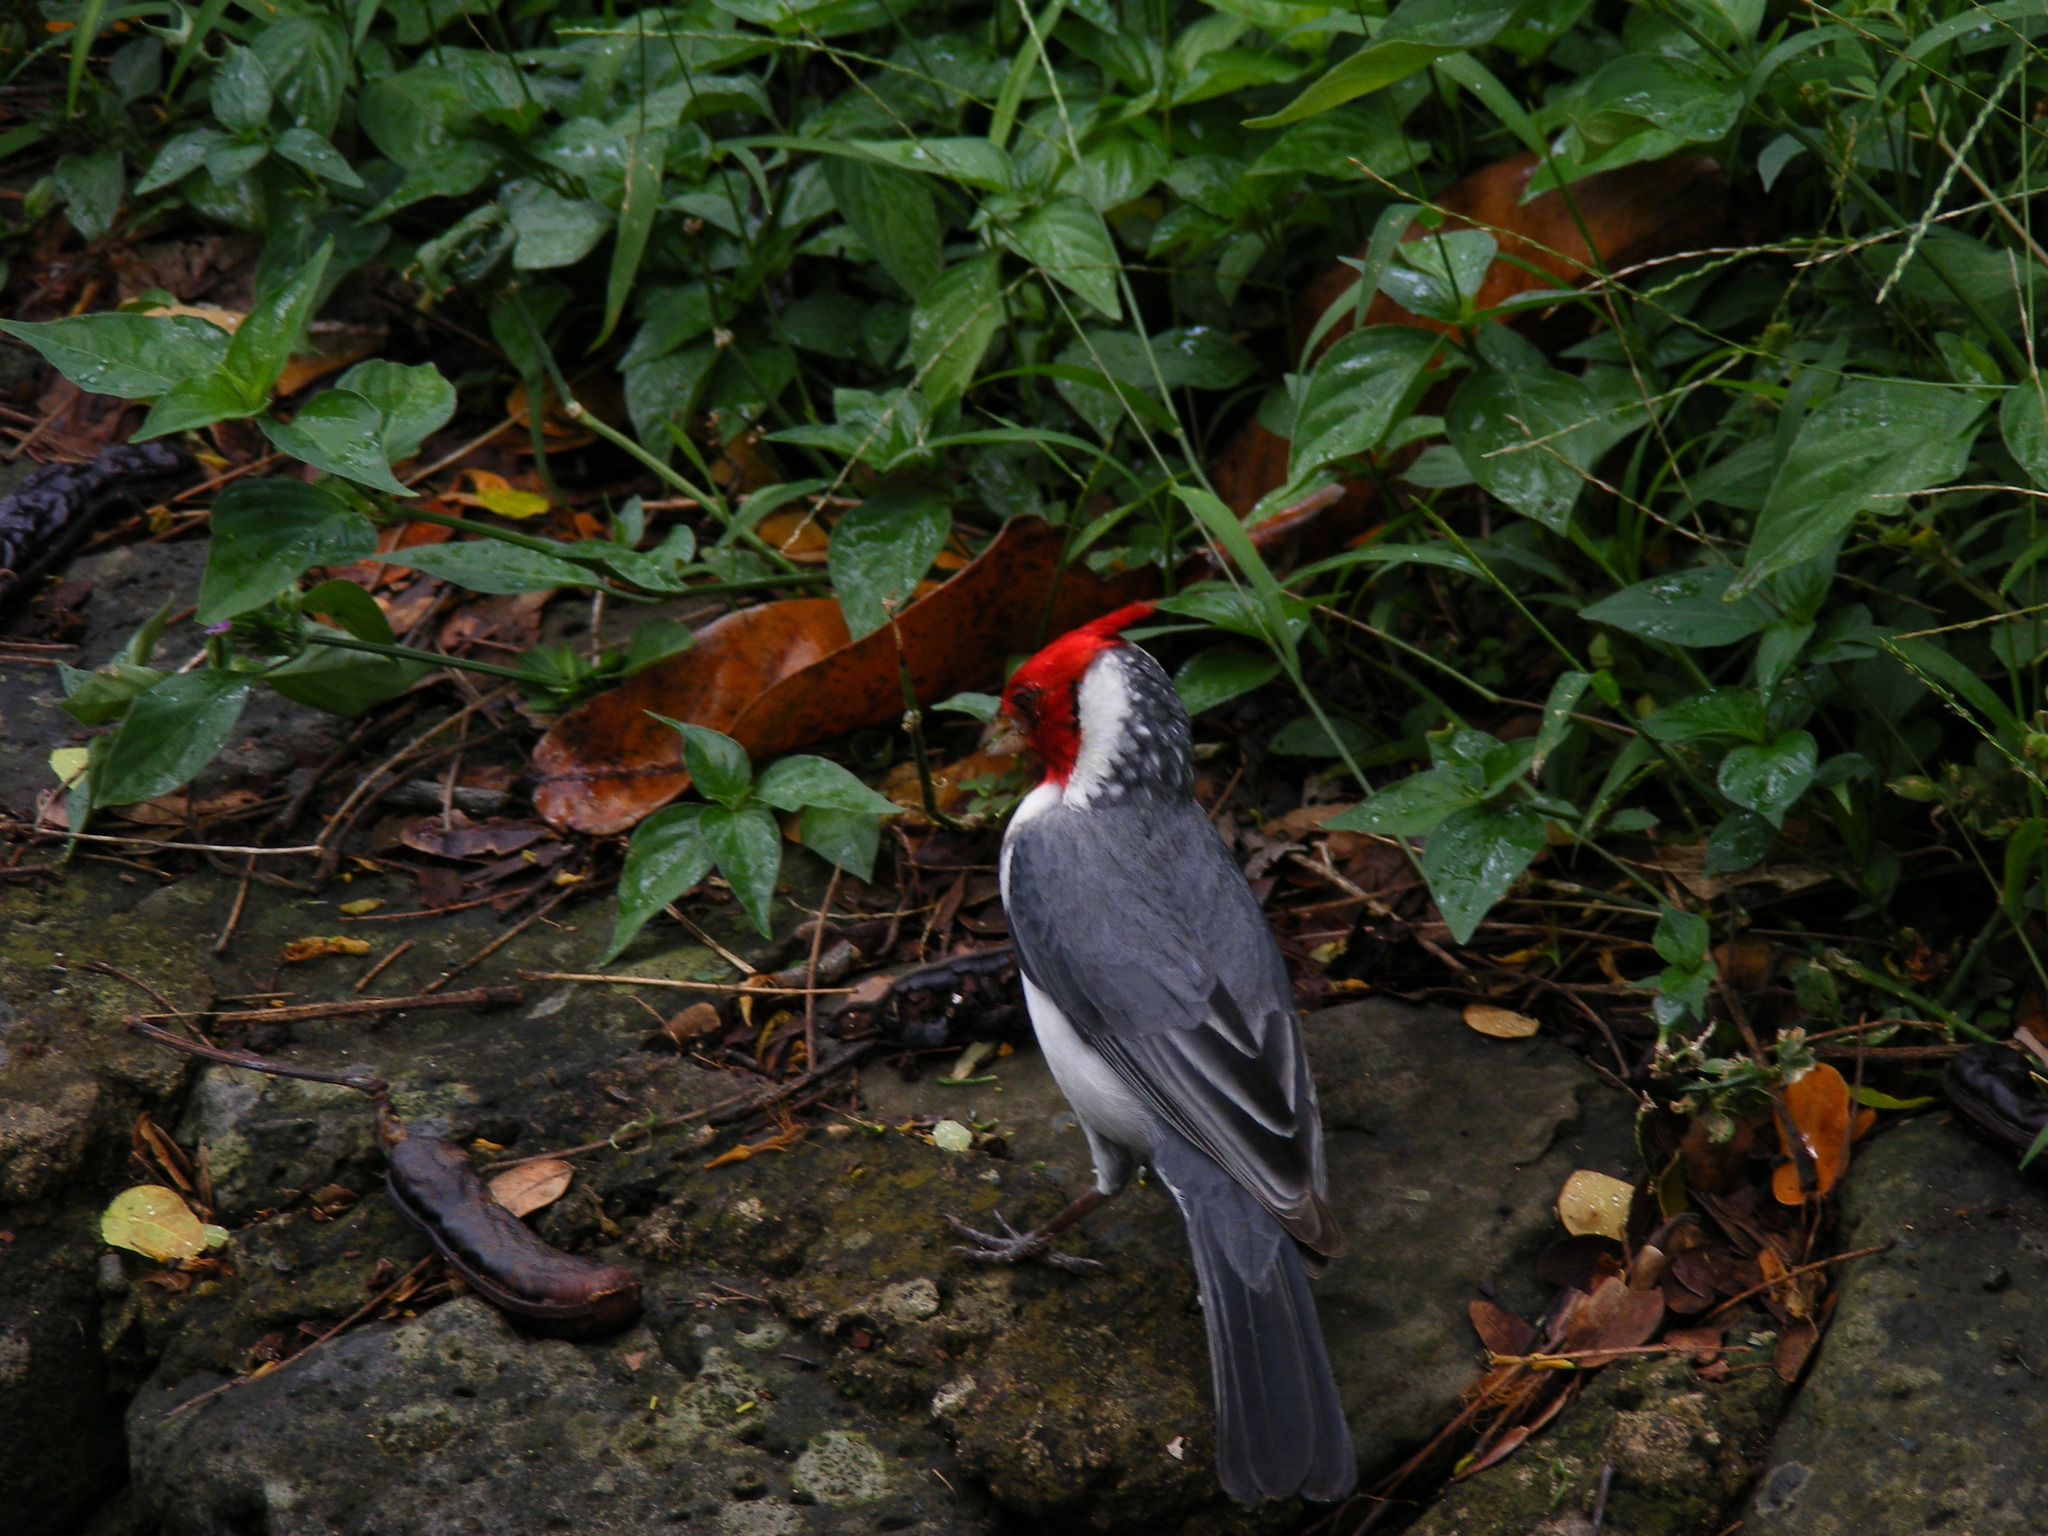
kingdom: Animalia
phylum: Chordata
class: Aves
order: Passeriformes
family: Thraupidae
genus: Paroaria
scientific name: Paroaria coronata
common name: Red-crested cardinal
